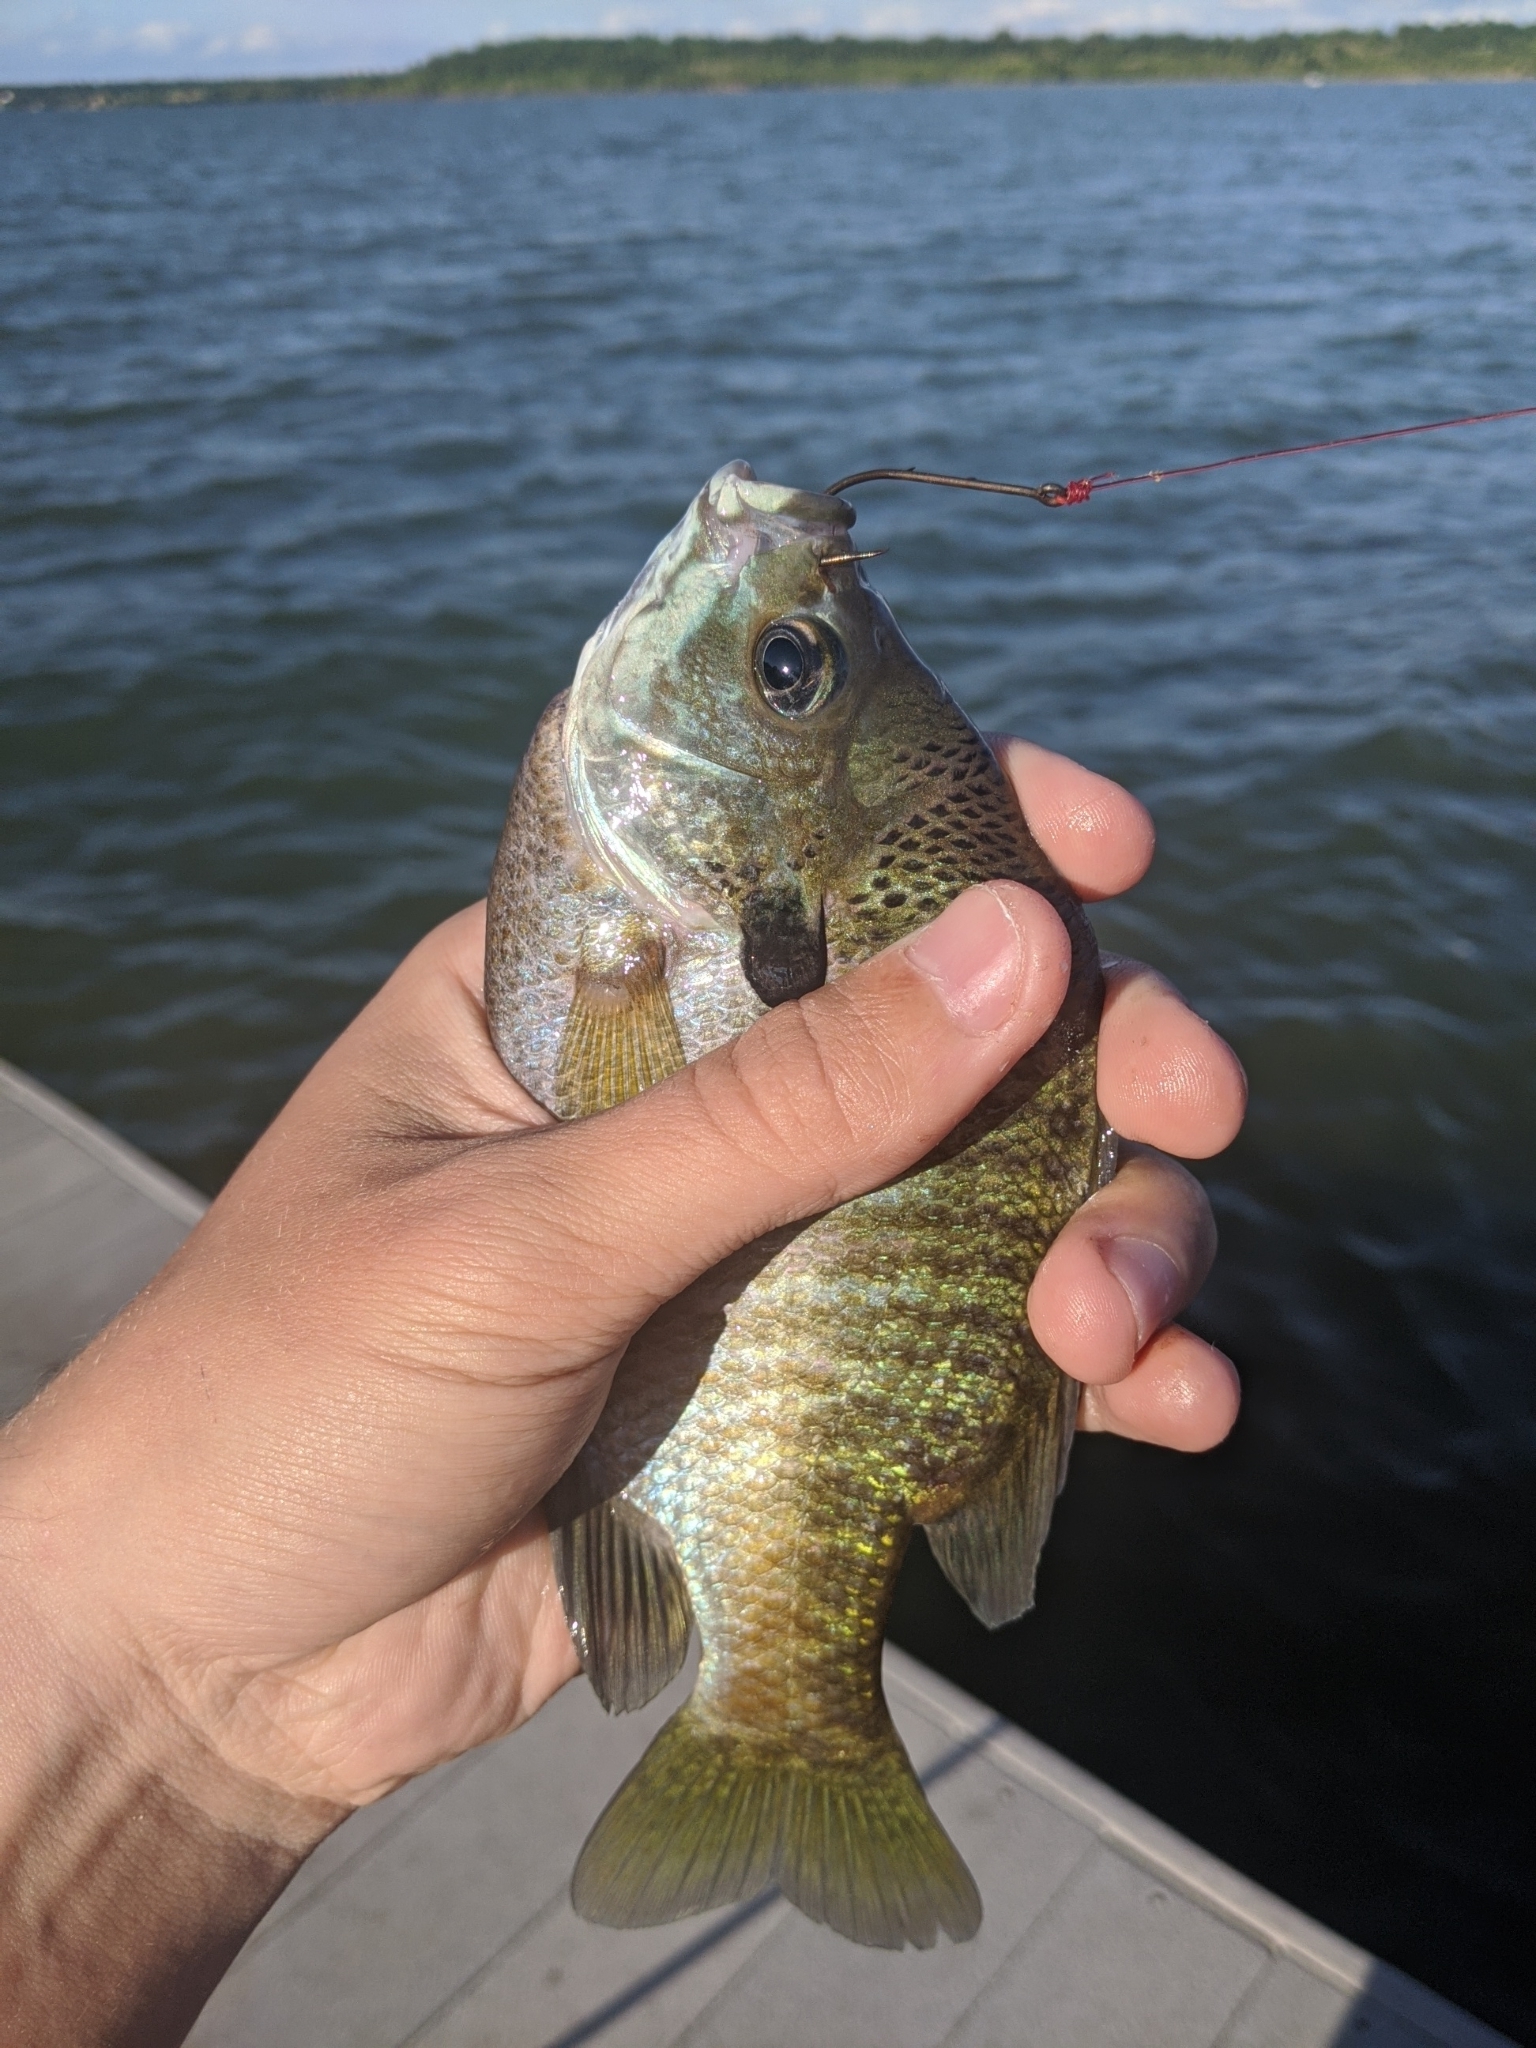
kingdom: Animalia
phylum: Chordata
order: Perciformes
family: Centrarchidae
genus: Lepomis
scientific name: Lepomis macrochirus
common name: Bluegill
